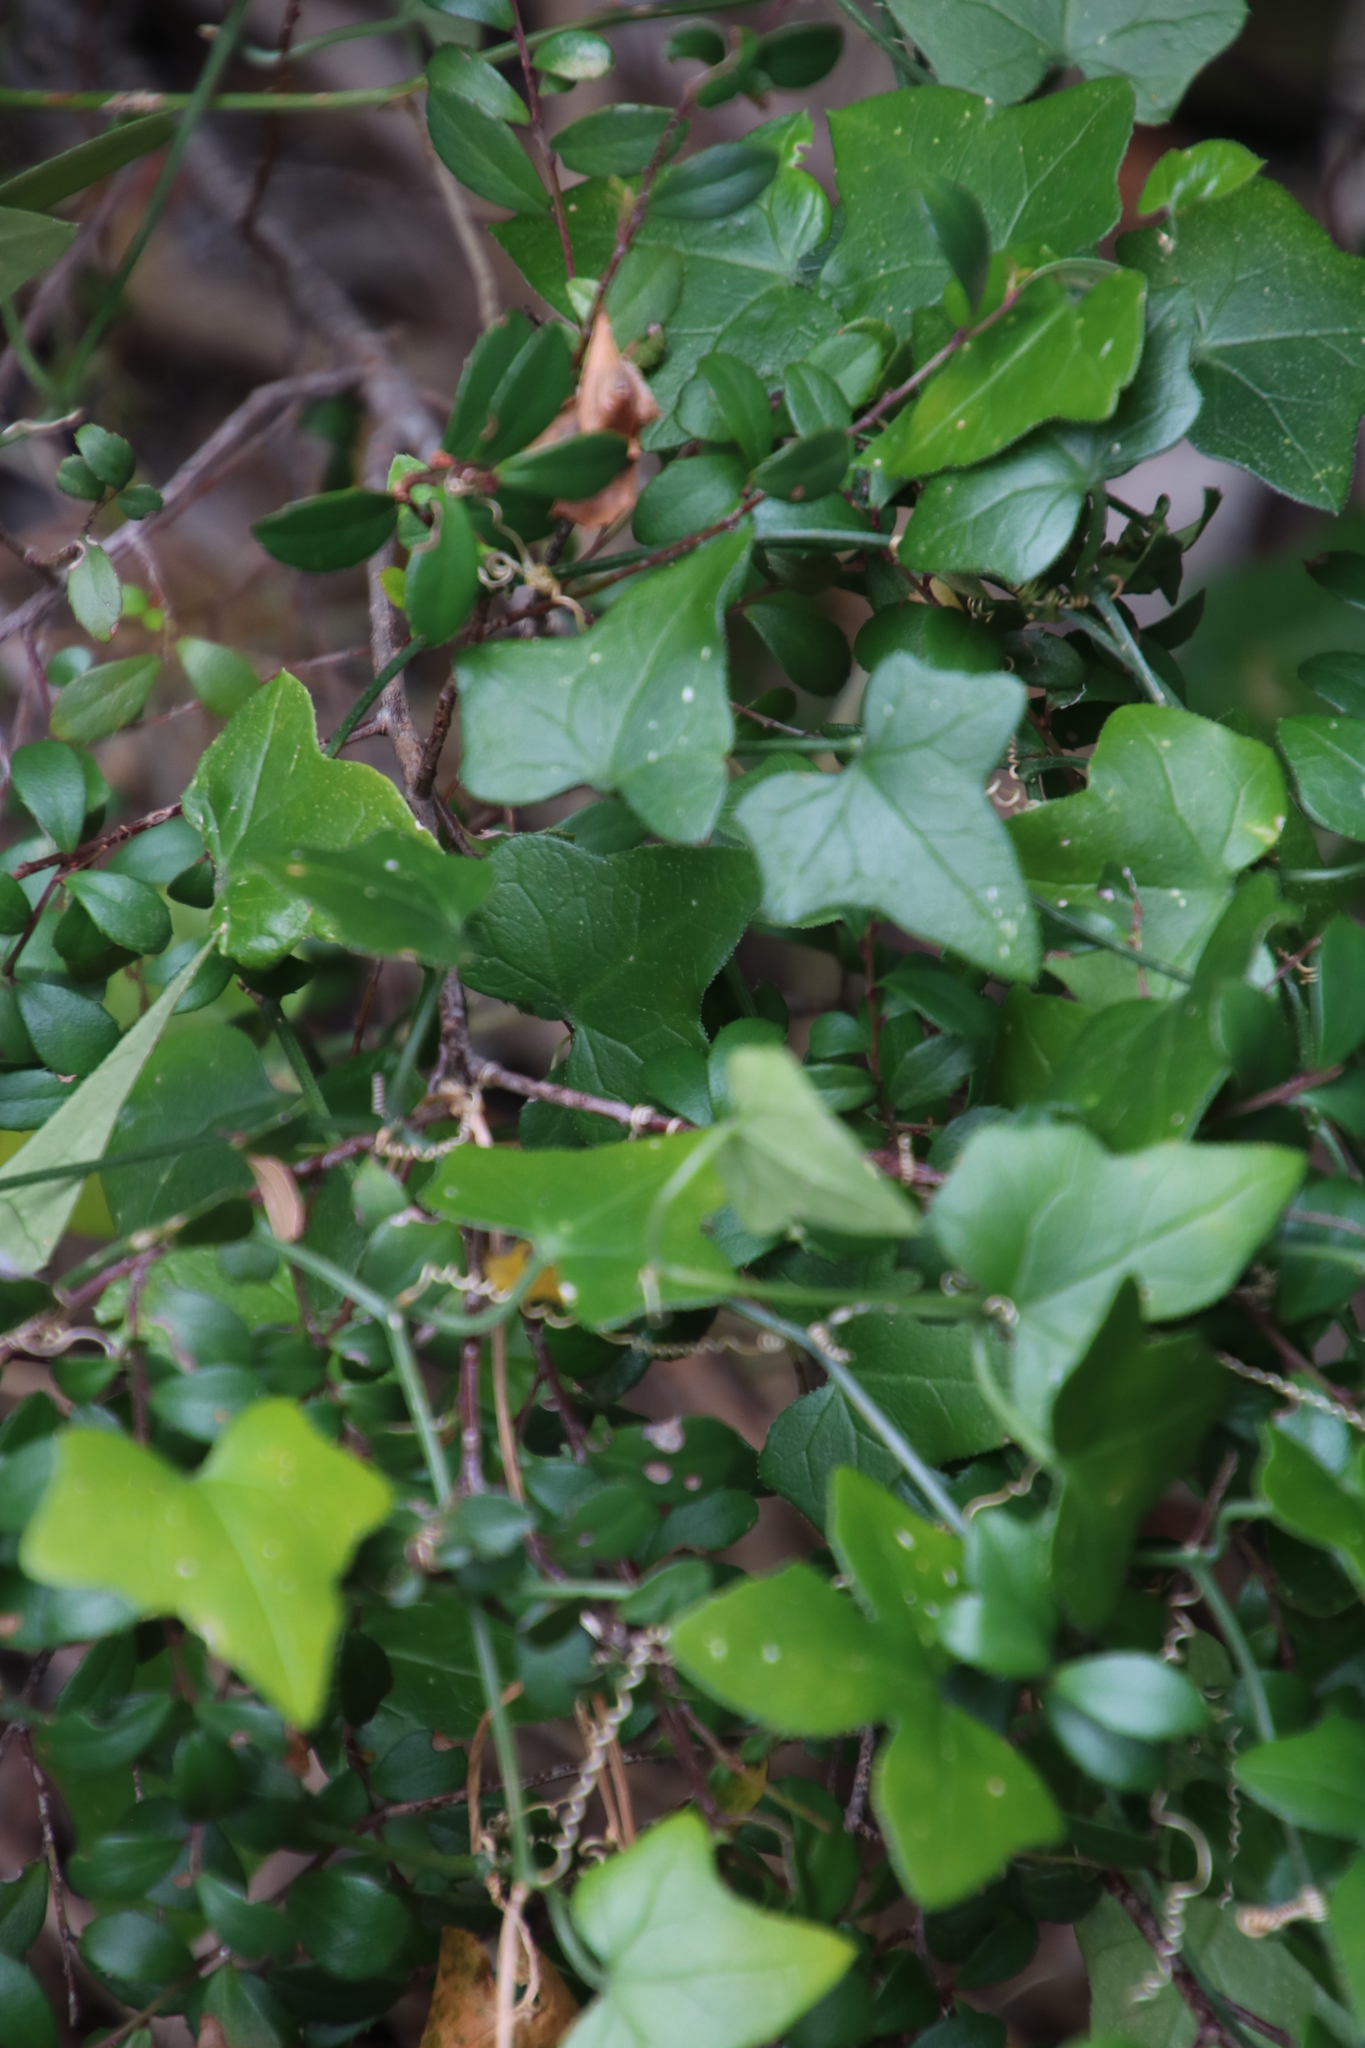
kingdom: Plantae
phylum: Tracheophyta
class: Magnoliopsida
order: Cucurbitales
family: Cucurbitaceae
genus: Kedrostis
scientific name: Kedrostis nana
